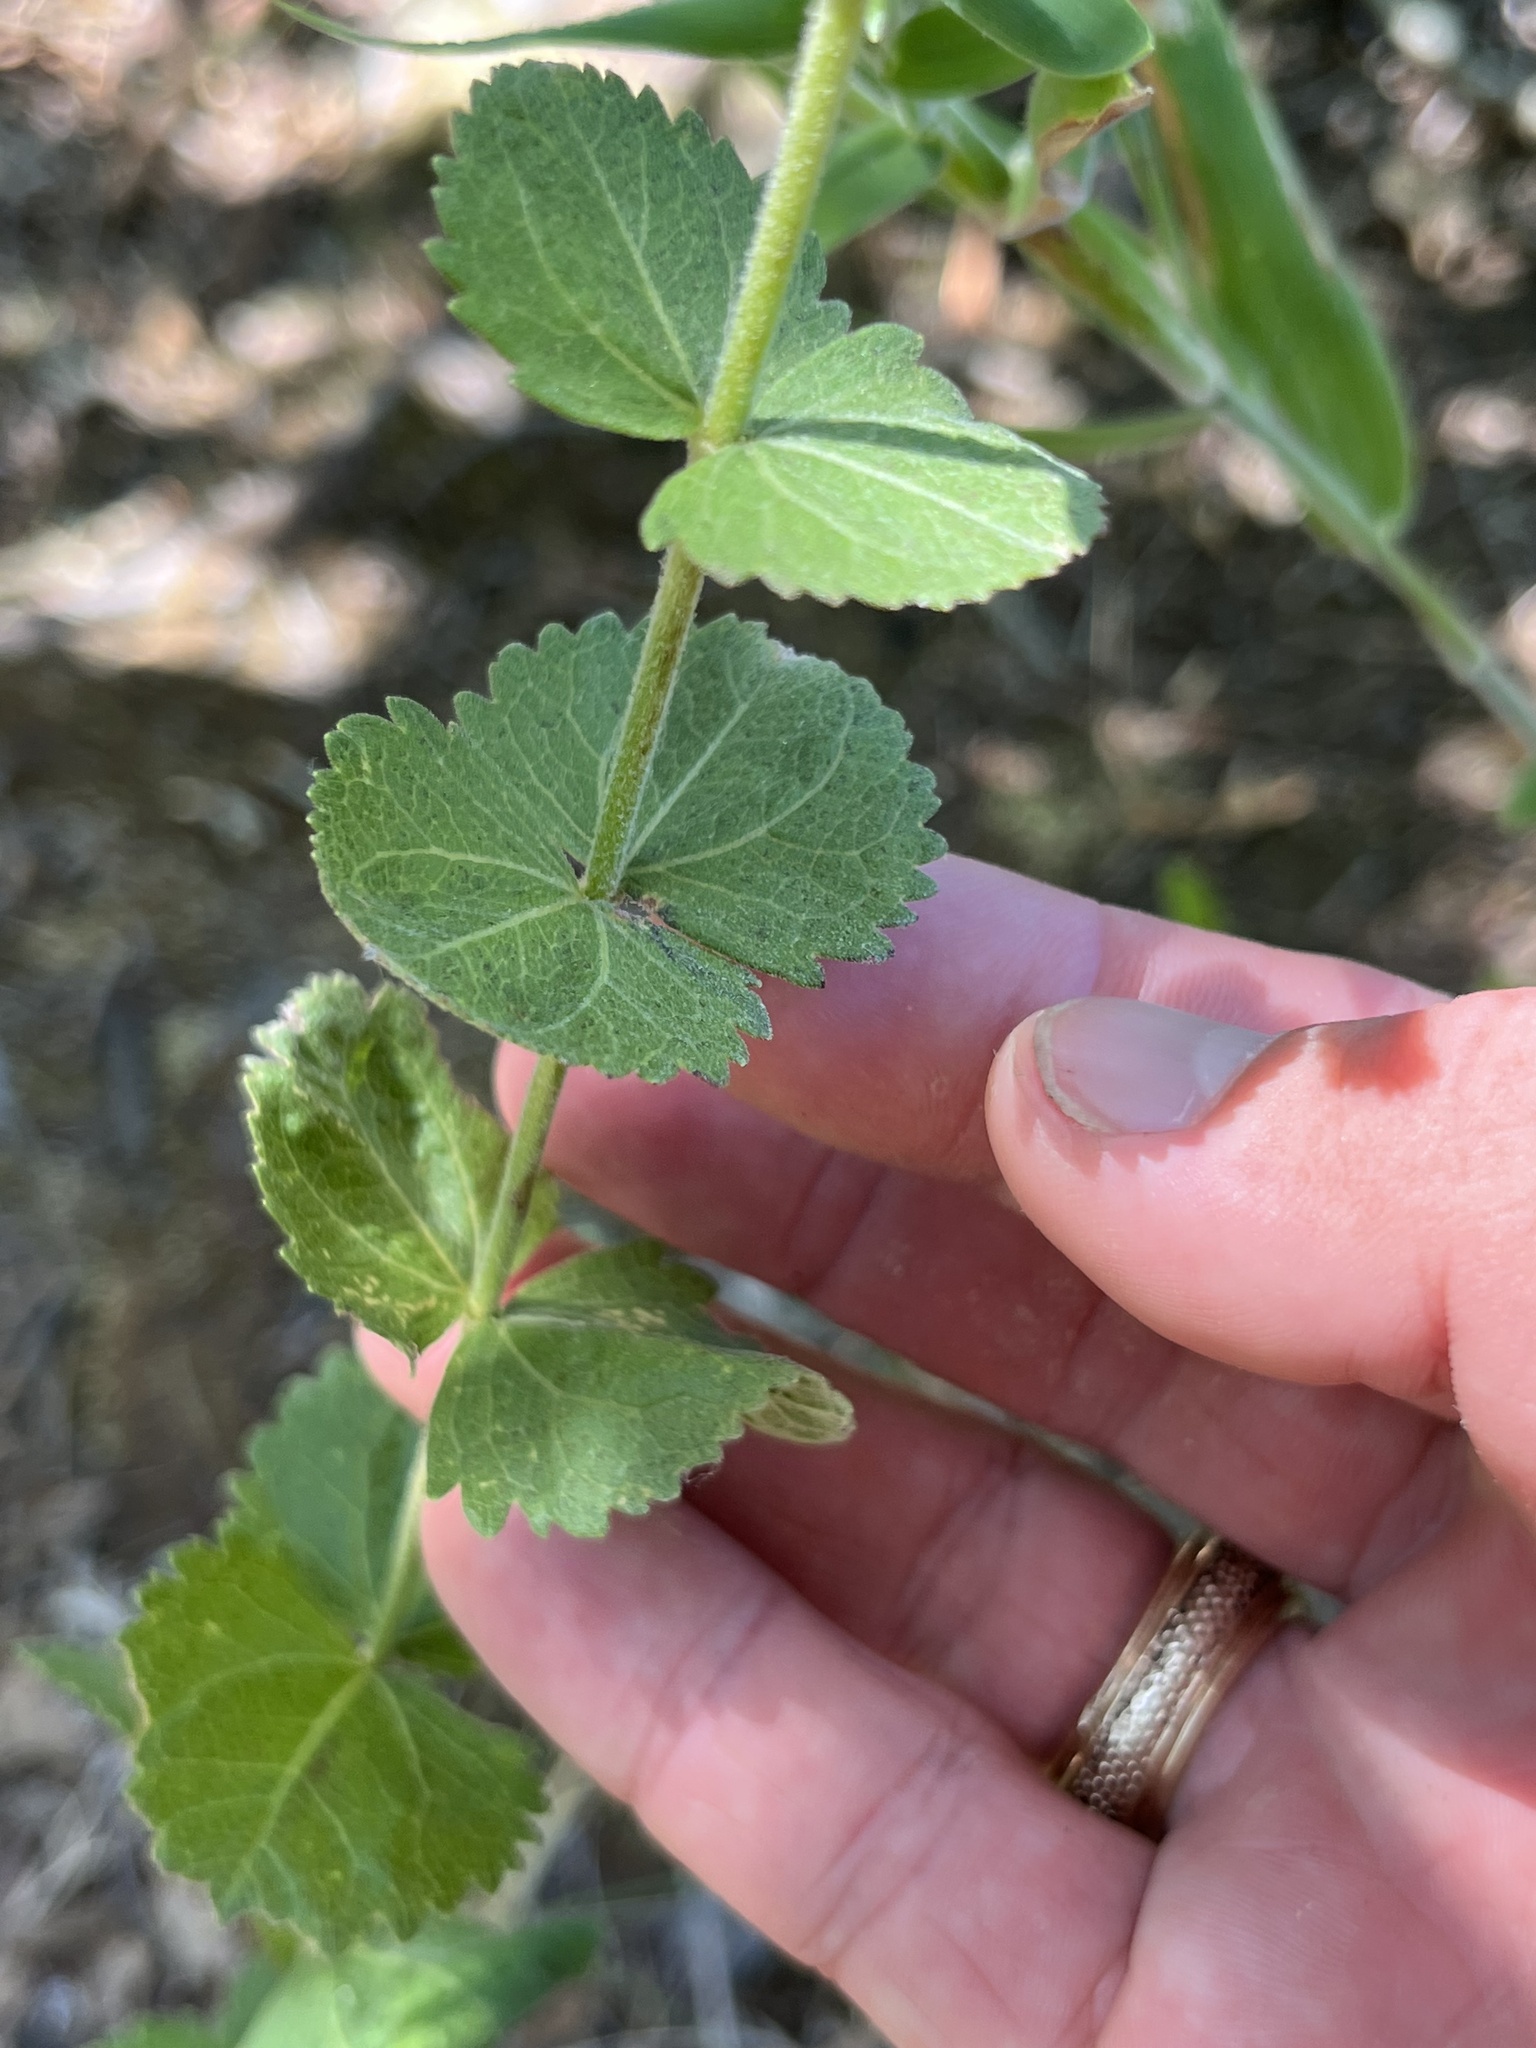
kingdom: Plantae
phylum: Tracheophyta
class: Magnoliopsida
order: Asterales
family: Asteraceae
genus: Eupatorium
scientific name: Eupatorium rotundifolium
